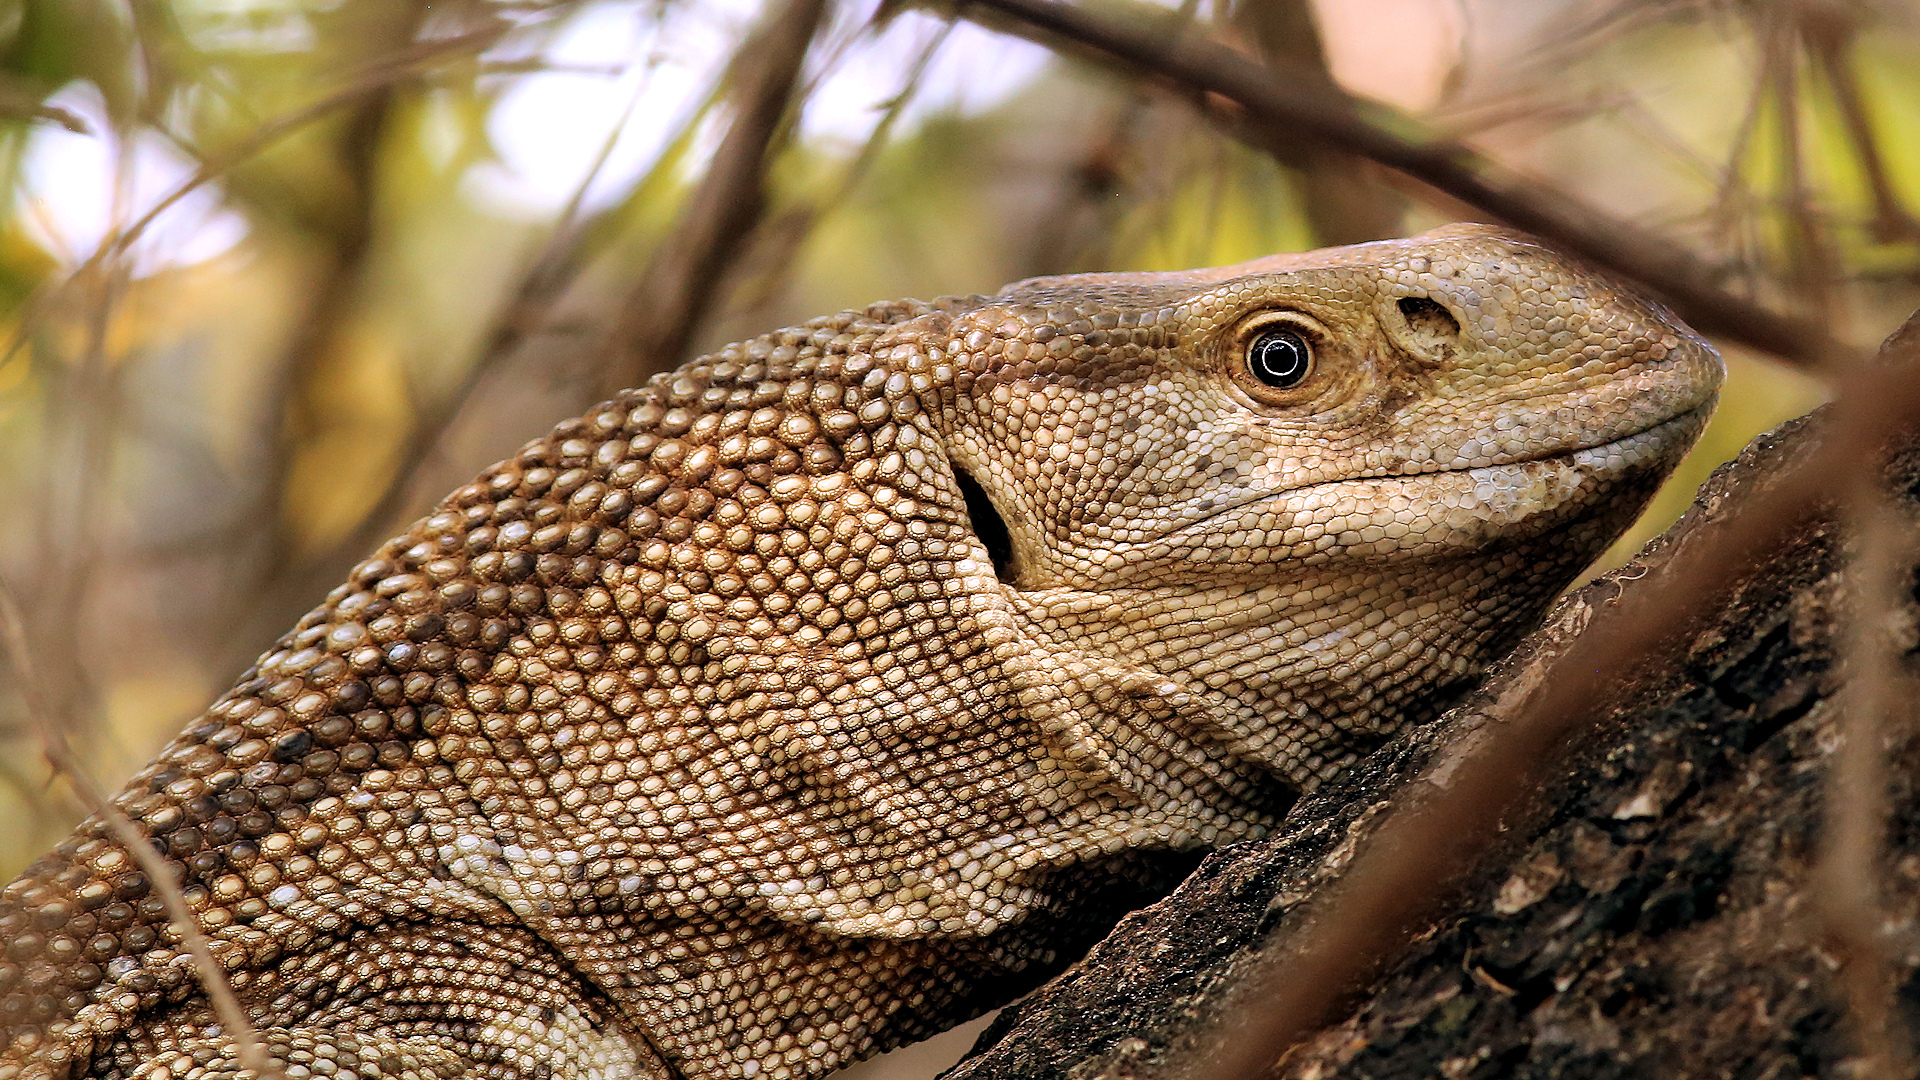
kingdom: Animalia
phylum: Chordata
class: Squamata
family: Varanidae
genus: Varanus
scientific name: Varanus albigularis
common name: White-throated monitor
